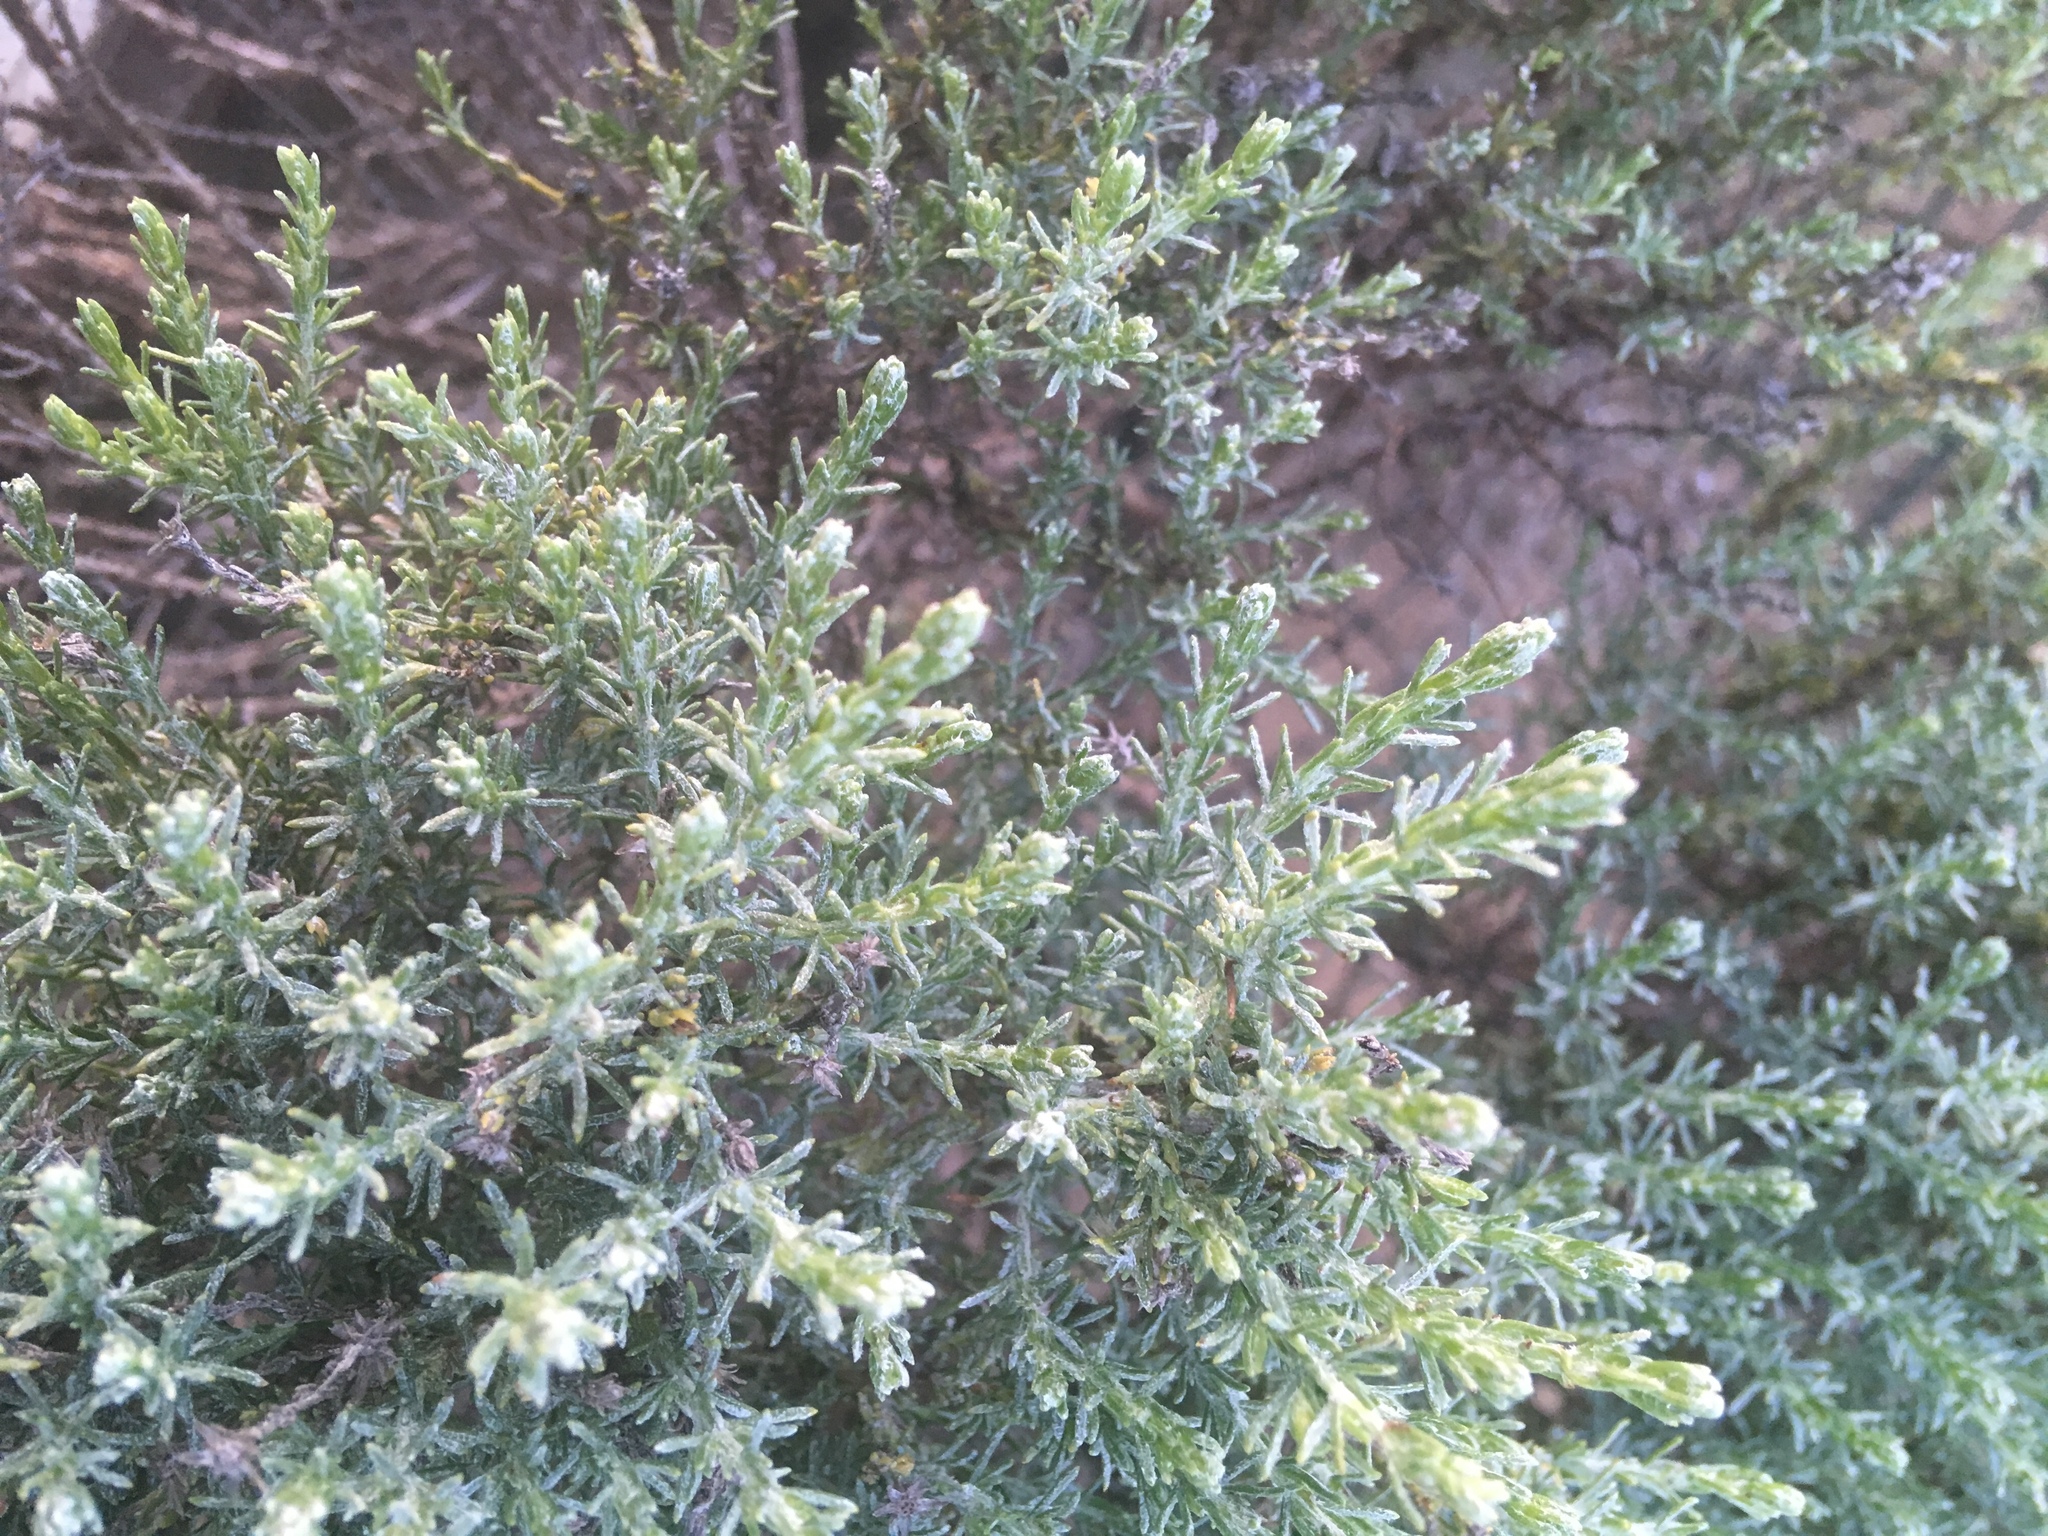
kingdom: Plantae
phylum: Tracheophyta
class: Magnoliopsida
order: Asterales
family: Asteraceae
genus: Ericameria
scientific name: Ericameria ericoides
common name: California goldenbush
